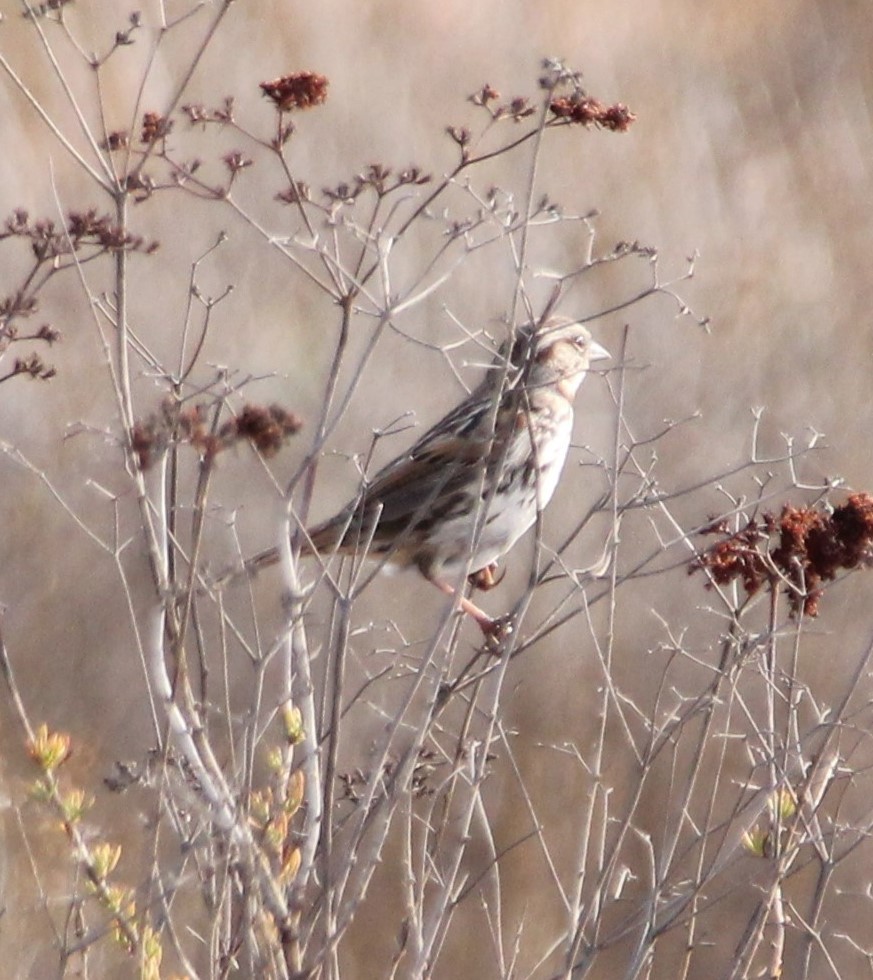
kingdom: Animalia
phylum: Chordata
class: Aves
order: Passeriformes
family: Passerellidae
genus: Melospiza
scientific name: Melospiza melodia
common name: Song sparrow
